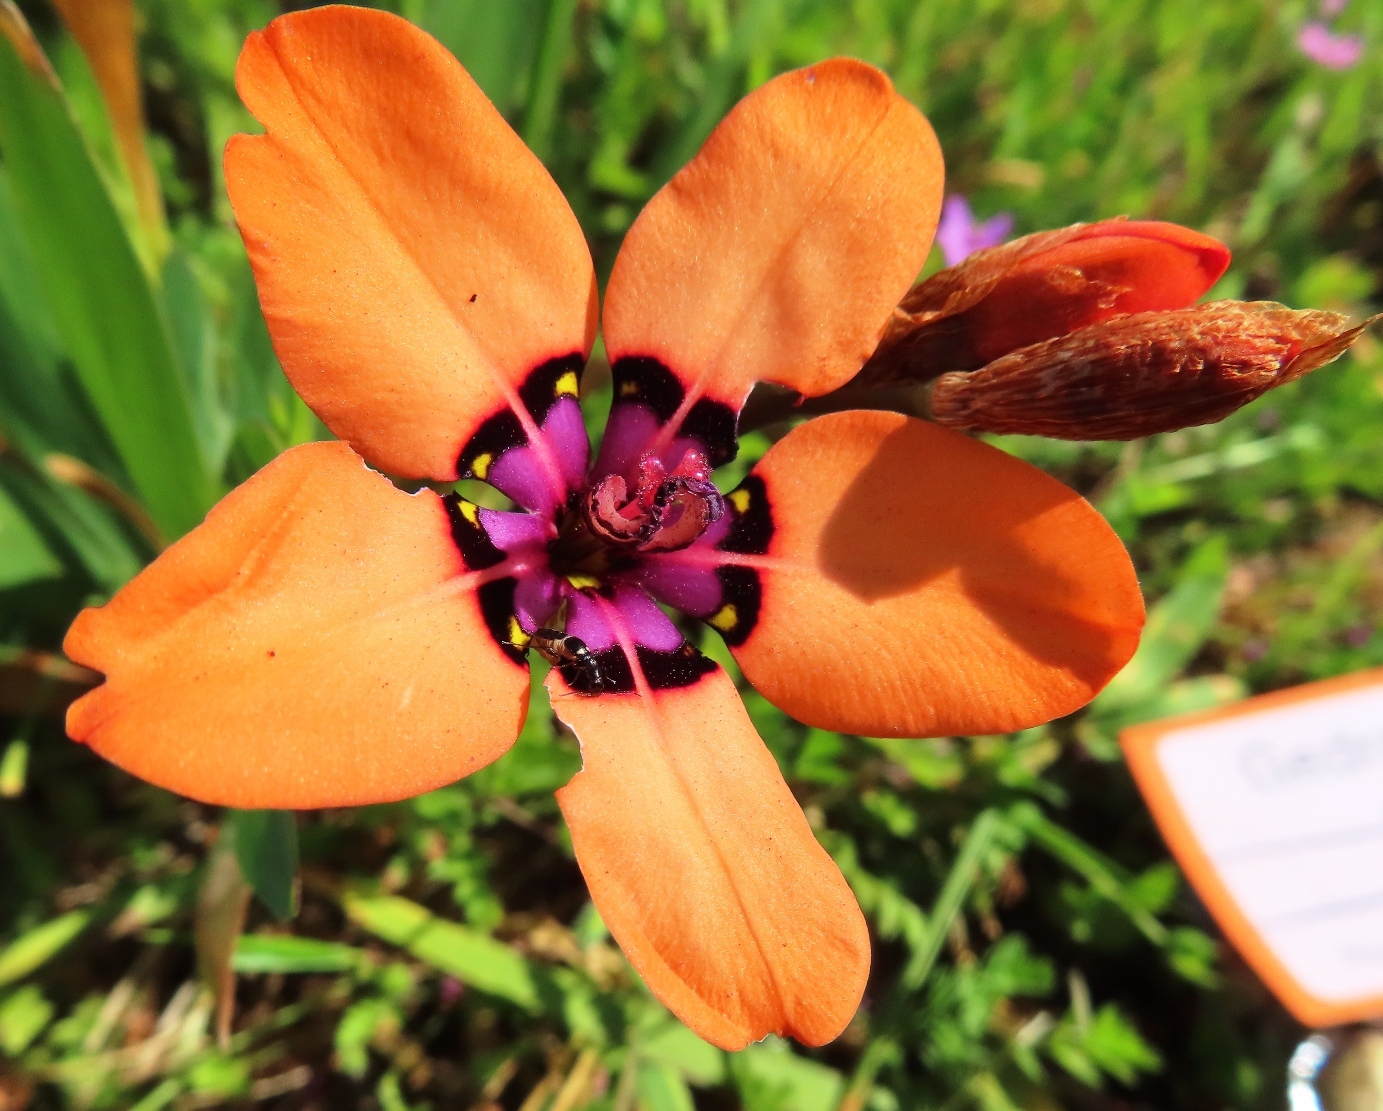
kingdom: Plantae
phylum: Tracheophyta
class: Liliopsida
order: Asparagales
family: Iridaceae
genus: Sparaxis
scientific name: Sparaxis elegans
